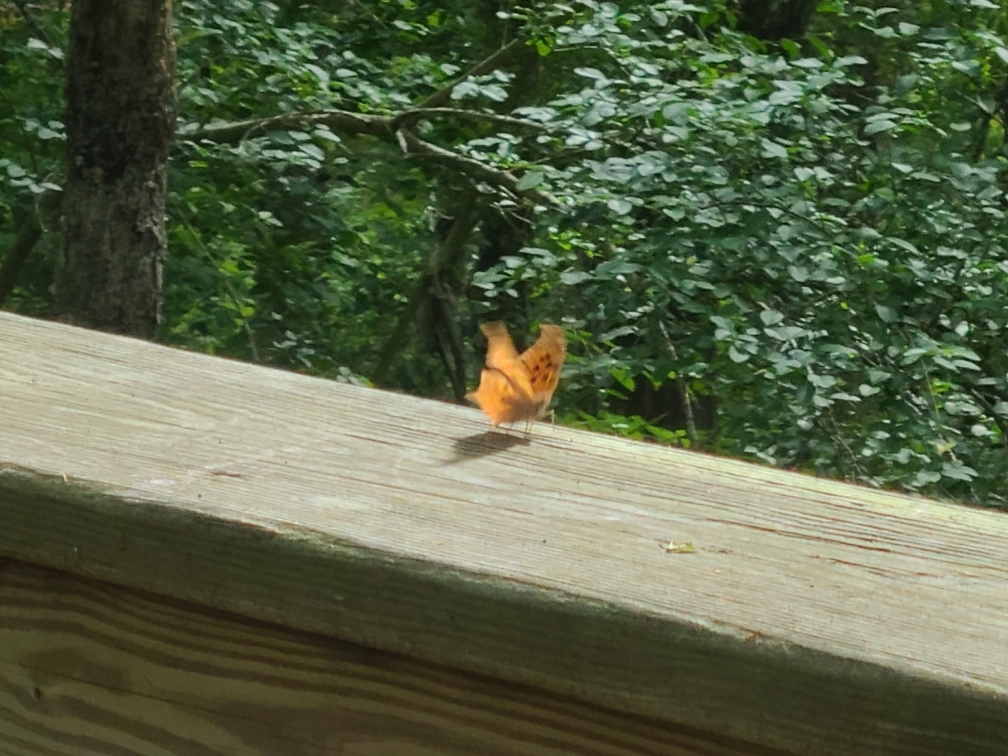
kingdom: Animalia
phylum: Arthropoda
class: Insecta
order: Lepidoptera
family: Nymphalidae
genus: Polygonia
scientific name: Polygonia interrogationis
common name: Question mark
